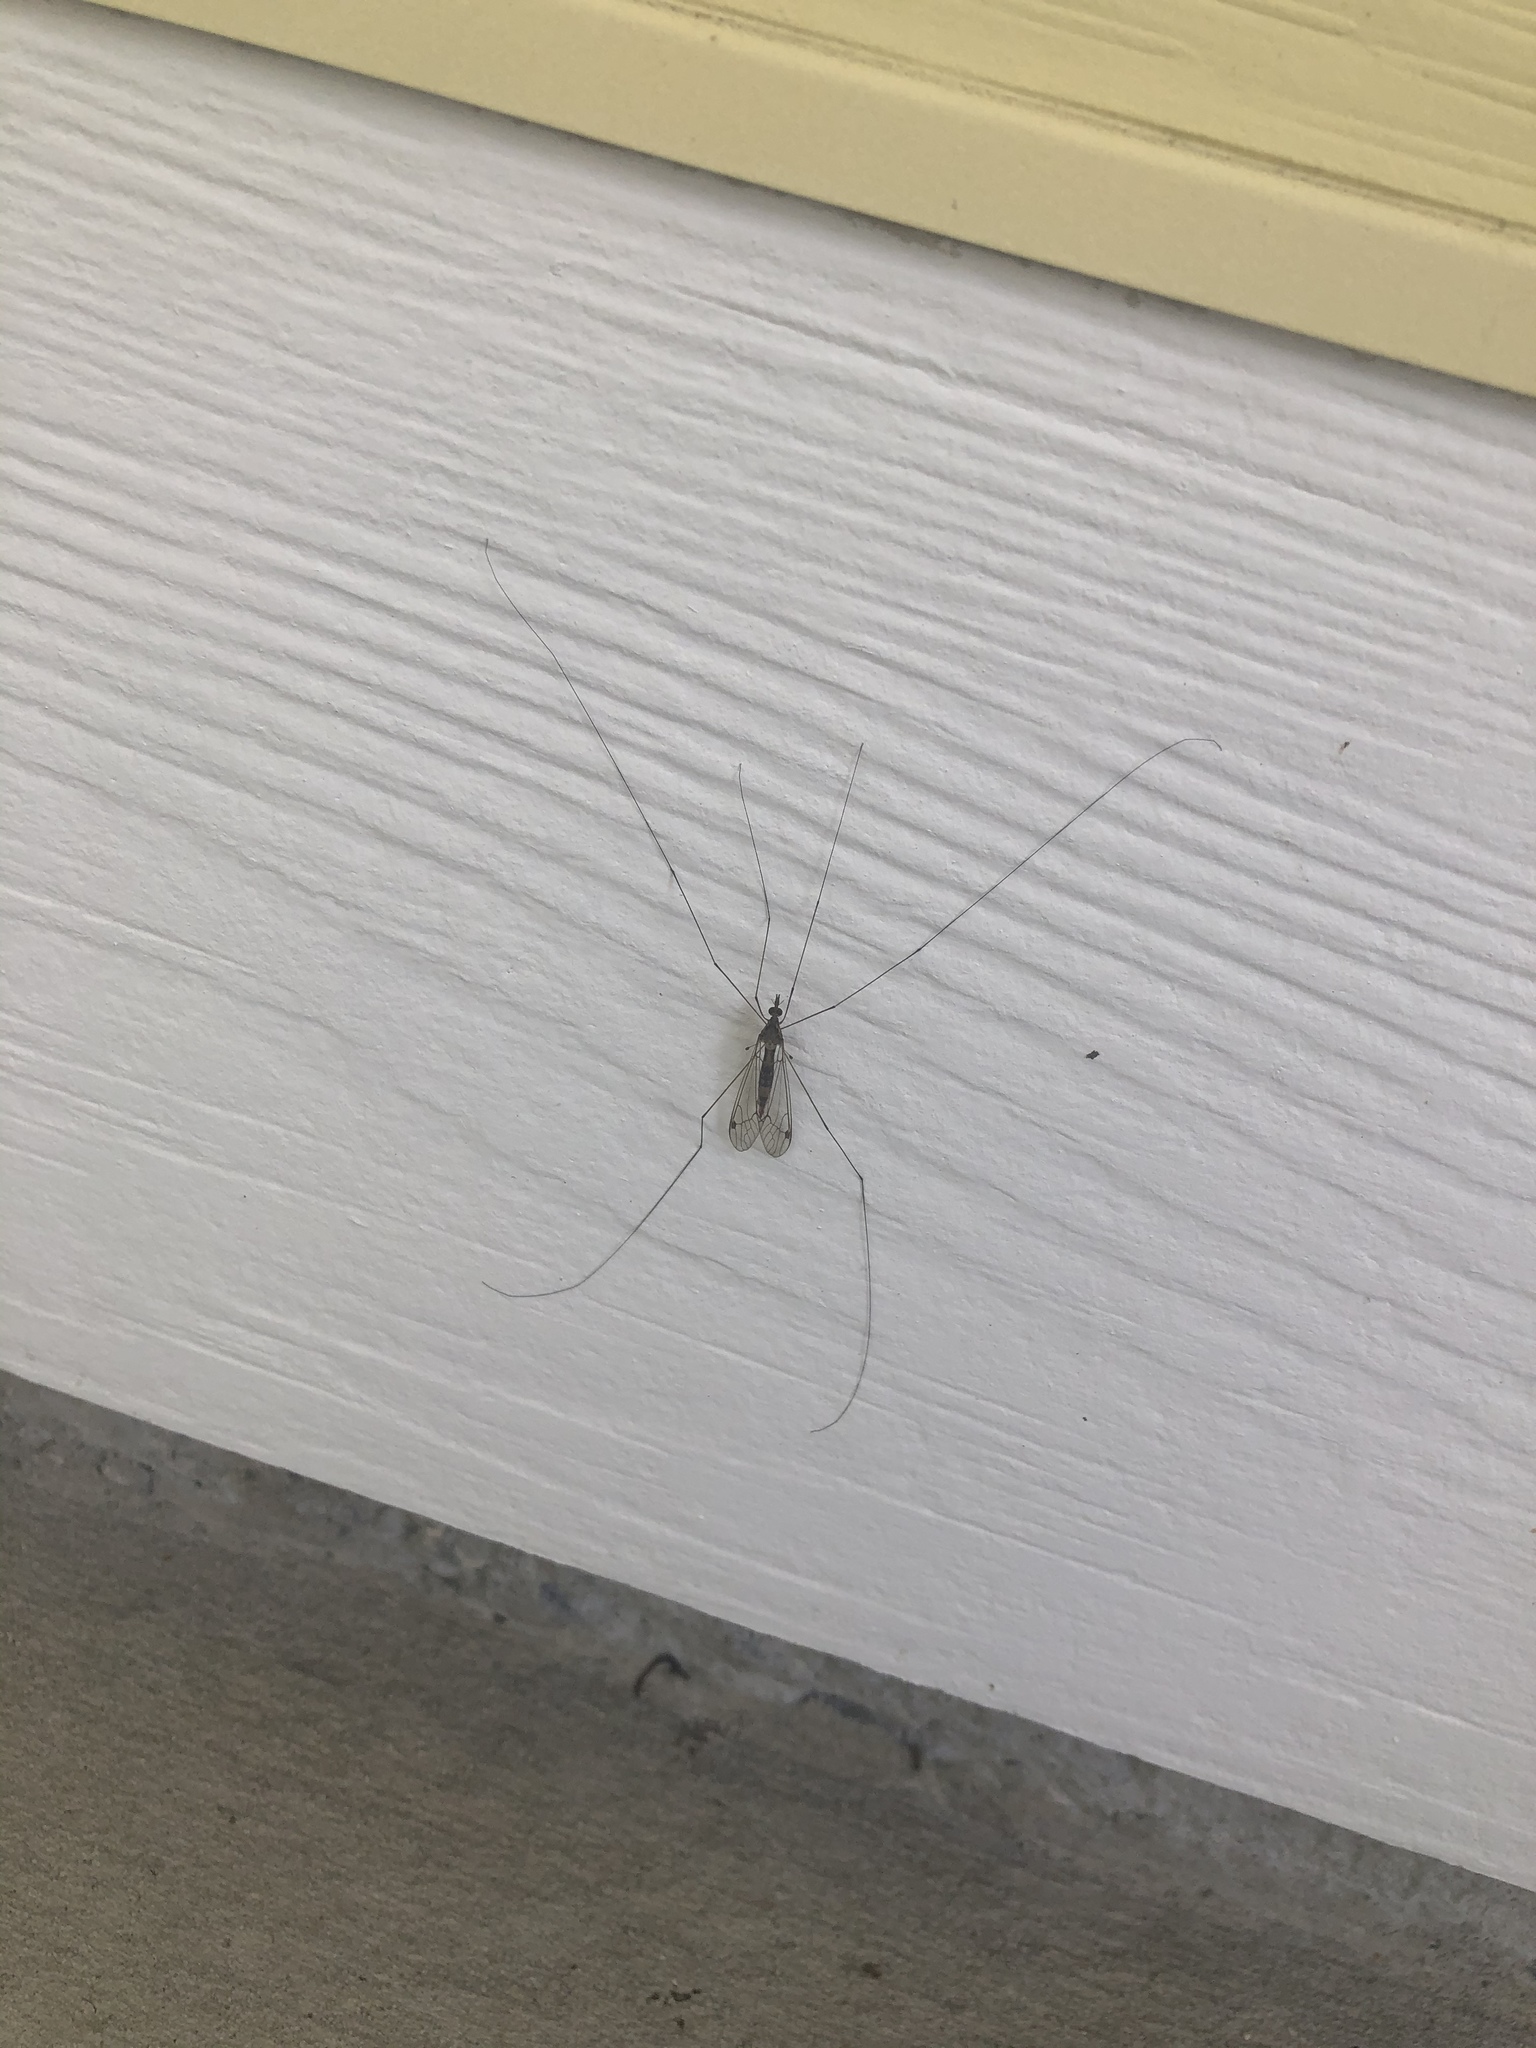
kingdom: Animalia
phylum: Arthropoda
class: Insecta
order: Diptera
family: Tipulidae
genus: Maekistocera
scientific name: Maekistocera longipennis
